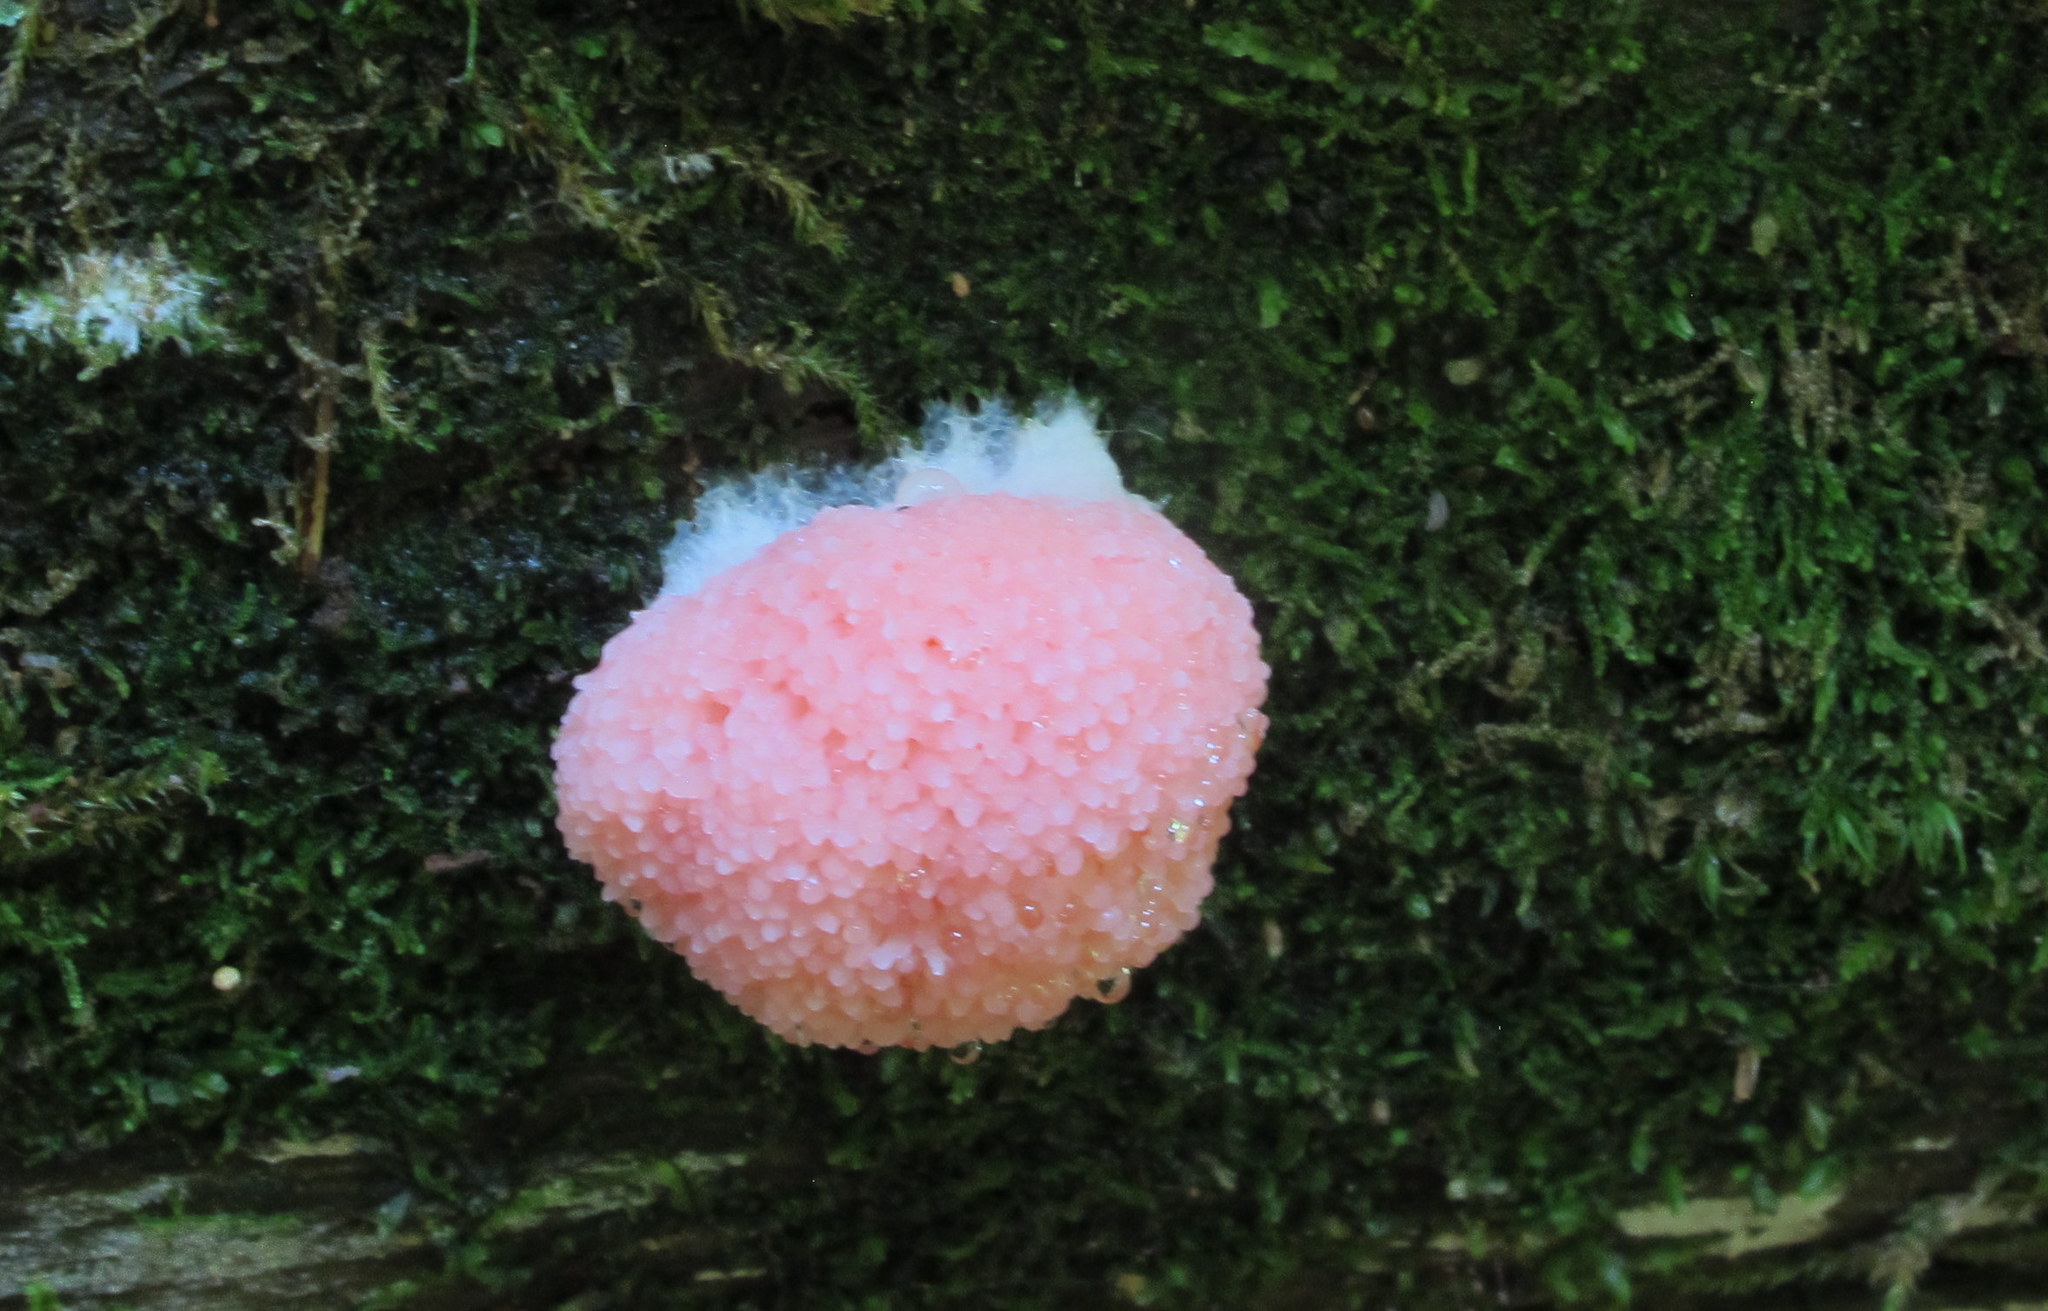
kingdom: Protozoa
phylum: Mycetozoa
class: Myxomycetes
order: Cribrariales
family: Tubiferaceae
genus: Tubifera
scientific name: Tubifera ferruginosa
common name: Red raspberry slime mold
